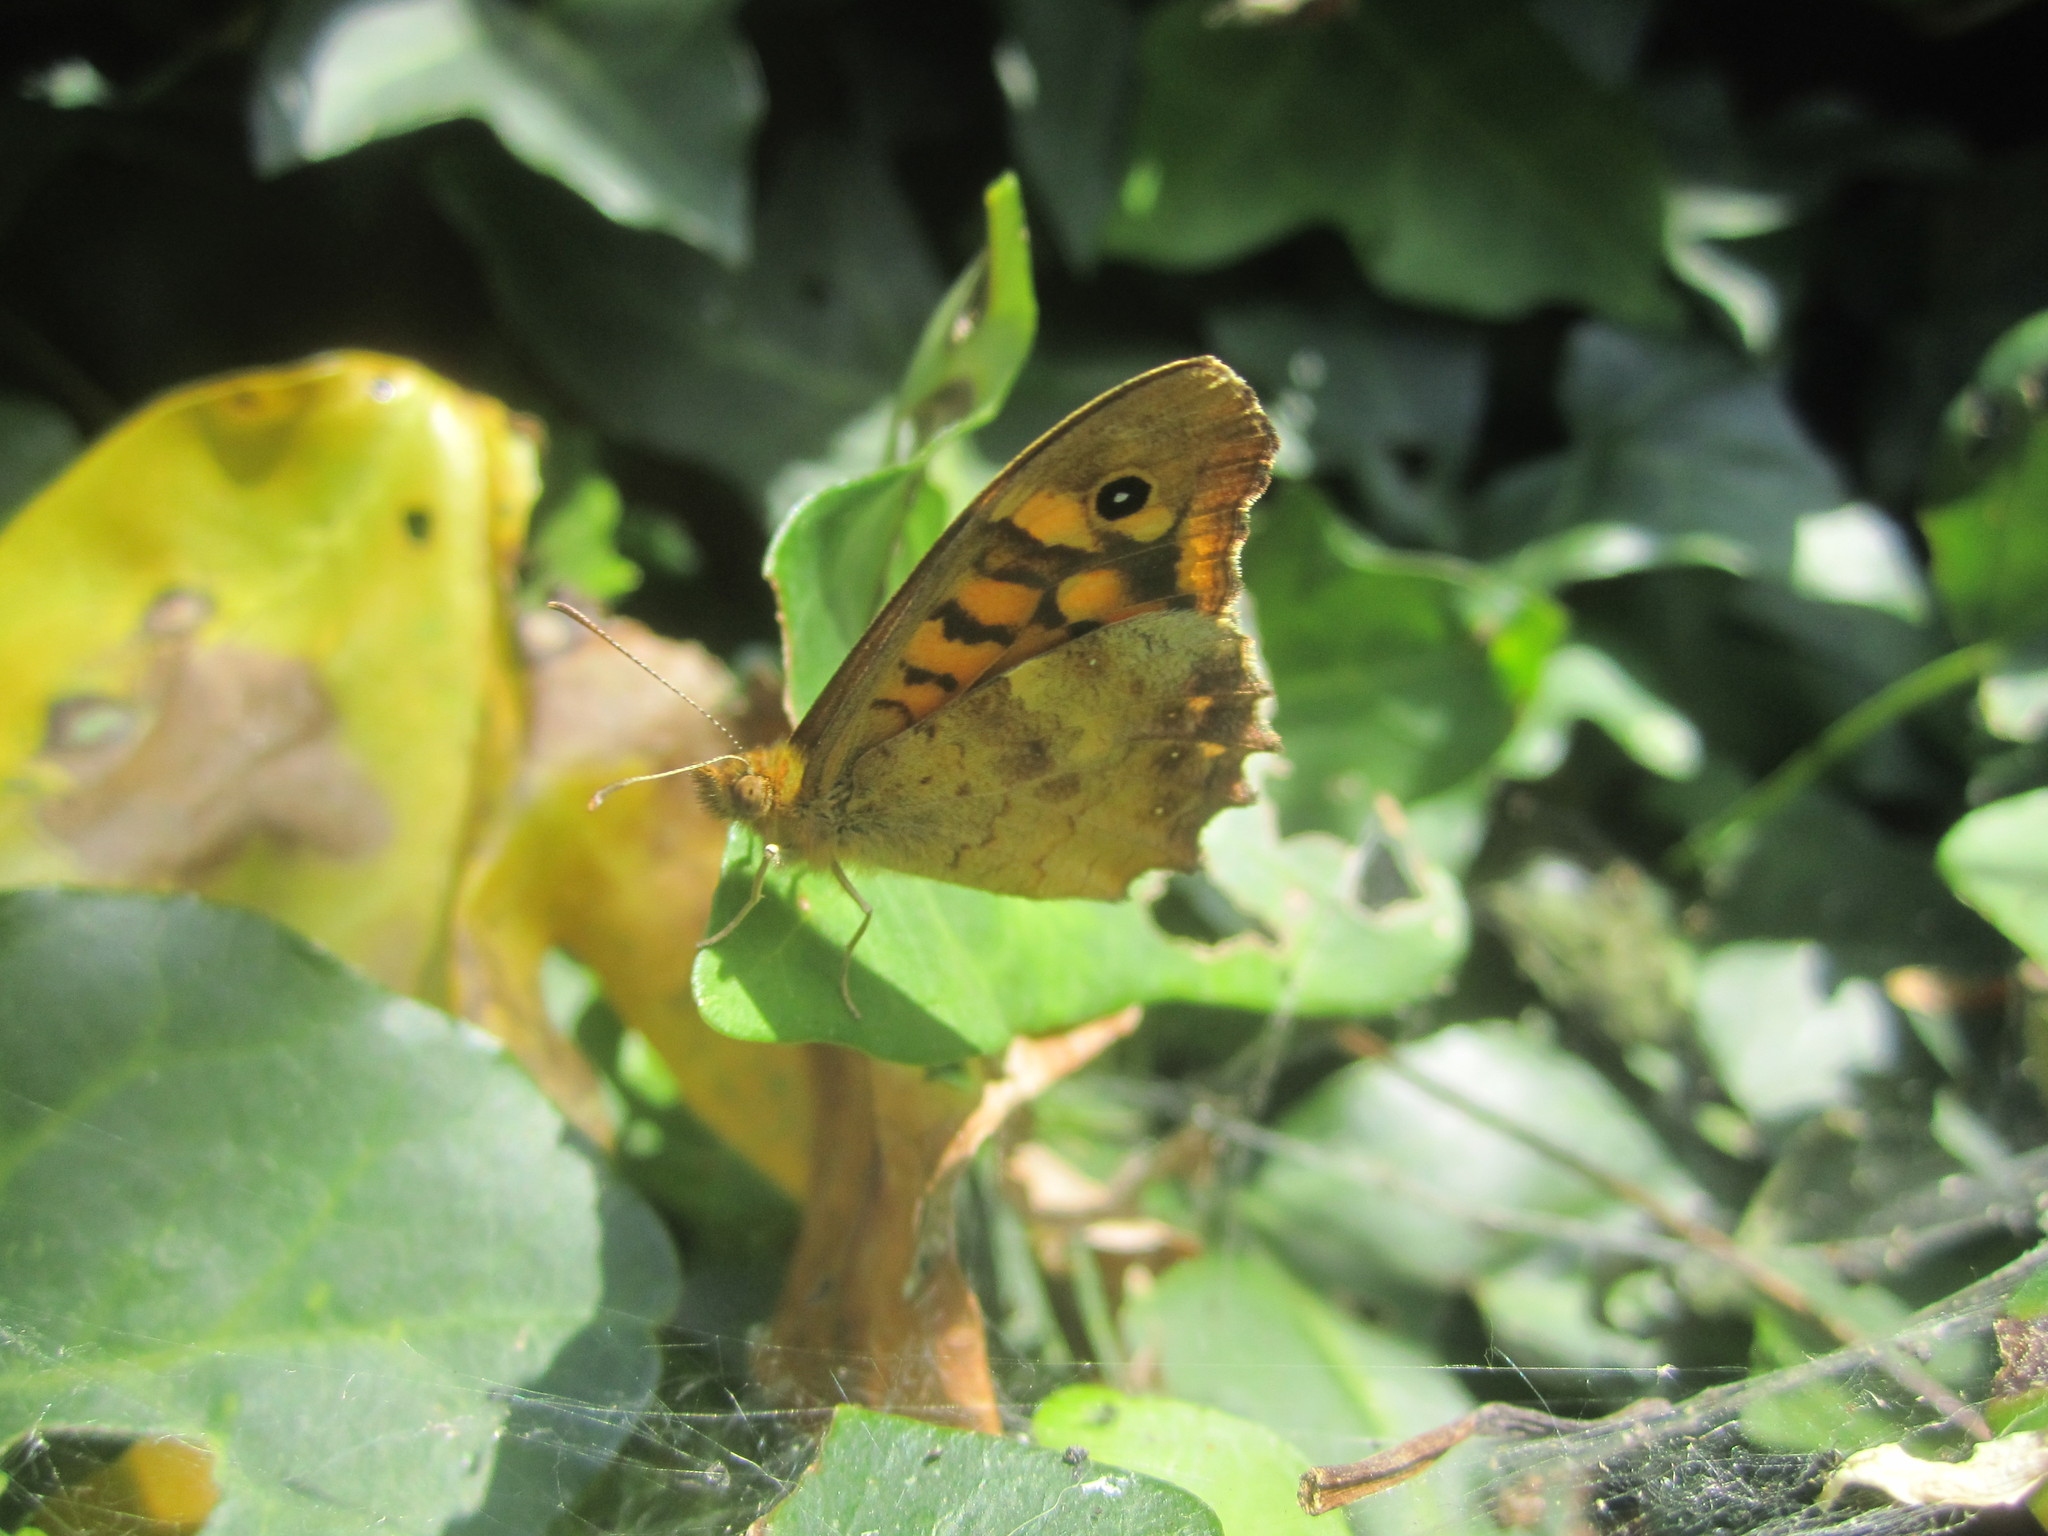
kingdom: Animalia
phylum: Arthropoda
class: Insecta
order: Lepidoptera
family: Nymphalidae
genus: Pararge
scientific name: Pararge aegeria
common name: Speckled wood
